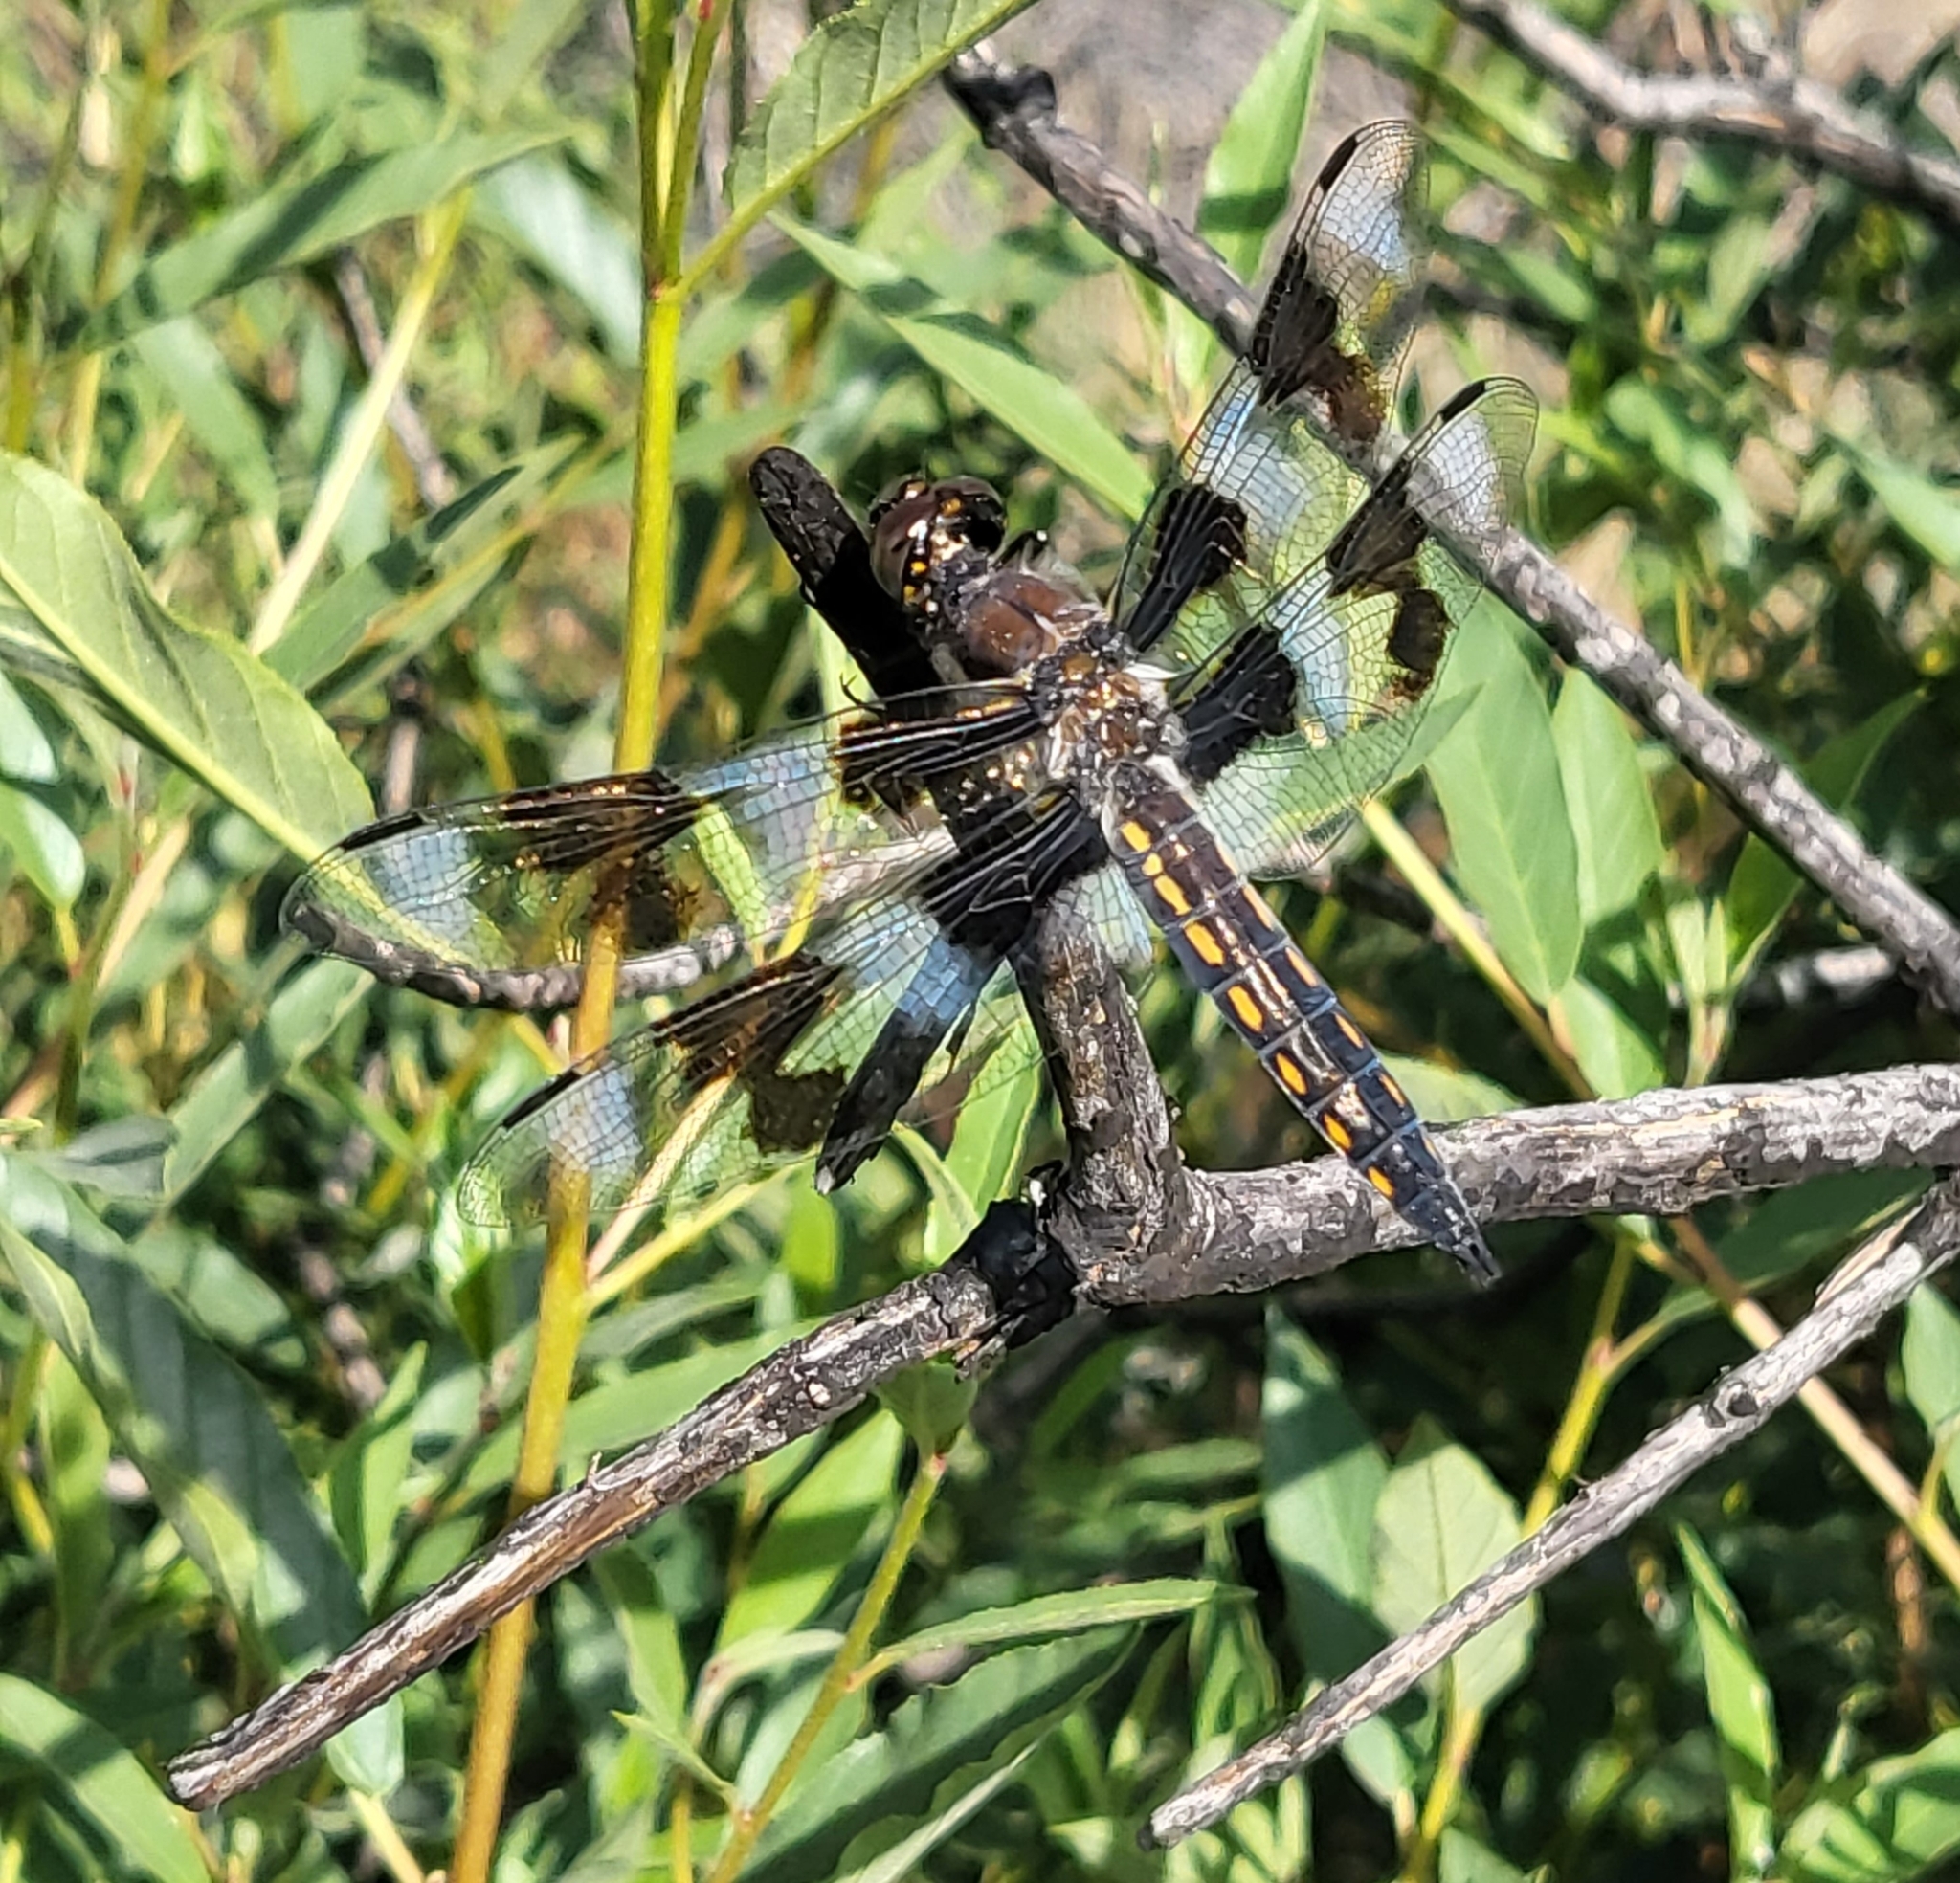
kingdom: Animalia
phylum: Arthropoda
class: Insecta
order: Odonata
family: Libellulidae
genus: Libellula
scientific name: Libellula forensis
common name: Eight-spotted skimmer
